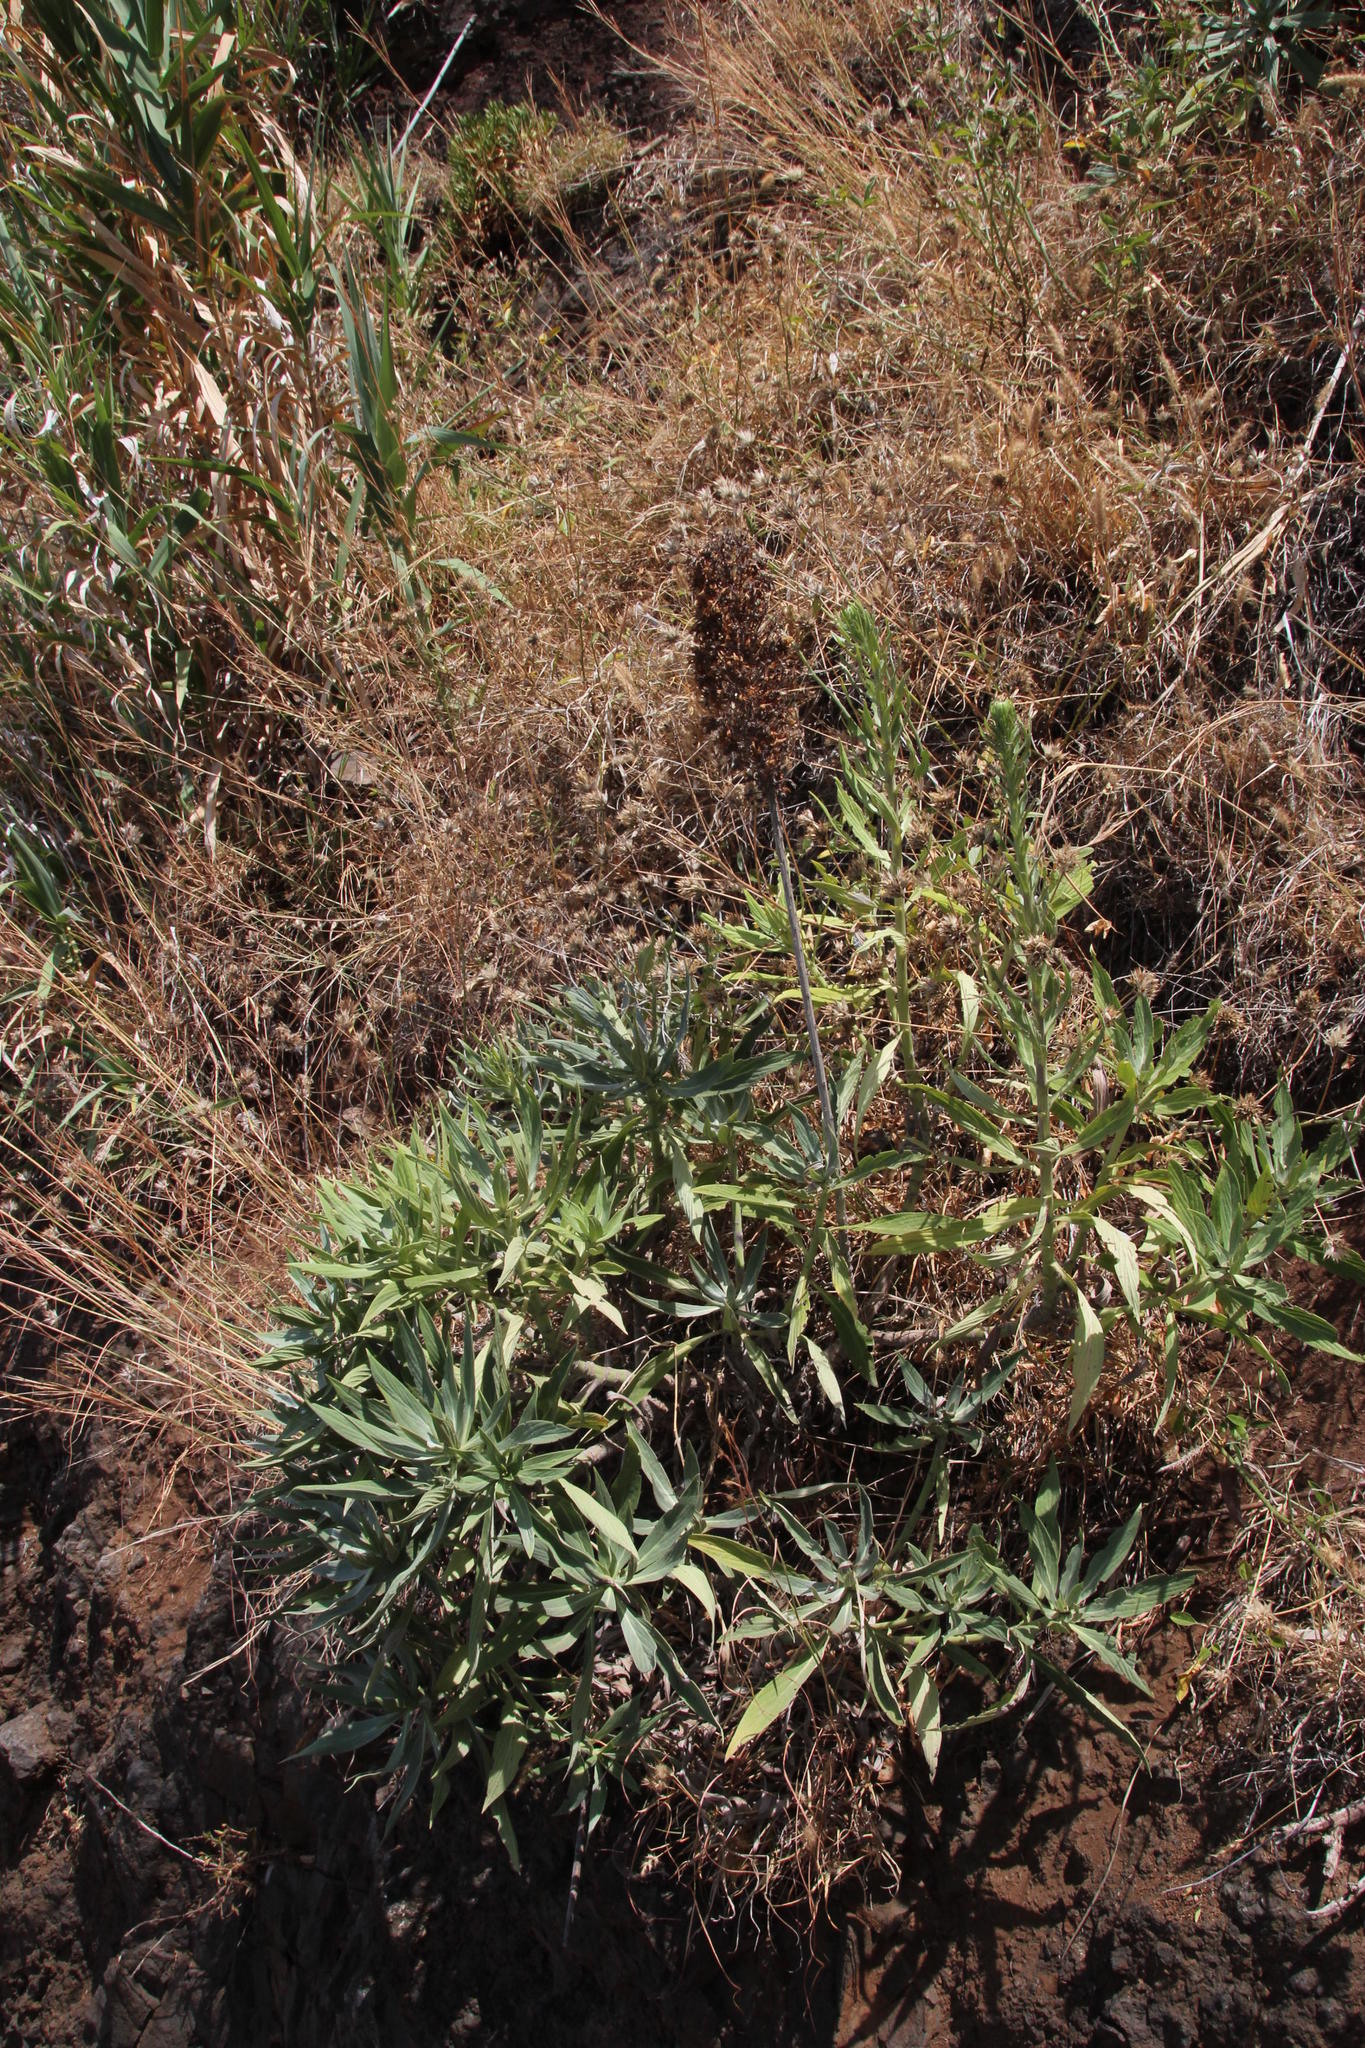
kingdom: Plantae
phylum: Tracheophyta
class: Magnoliopsida
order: Boraginales
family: Boraginaceae
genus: Echium
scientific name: Echium nervosum
